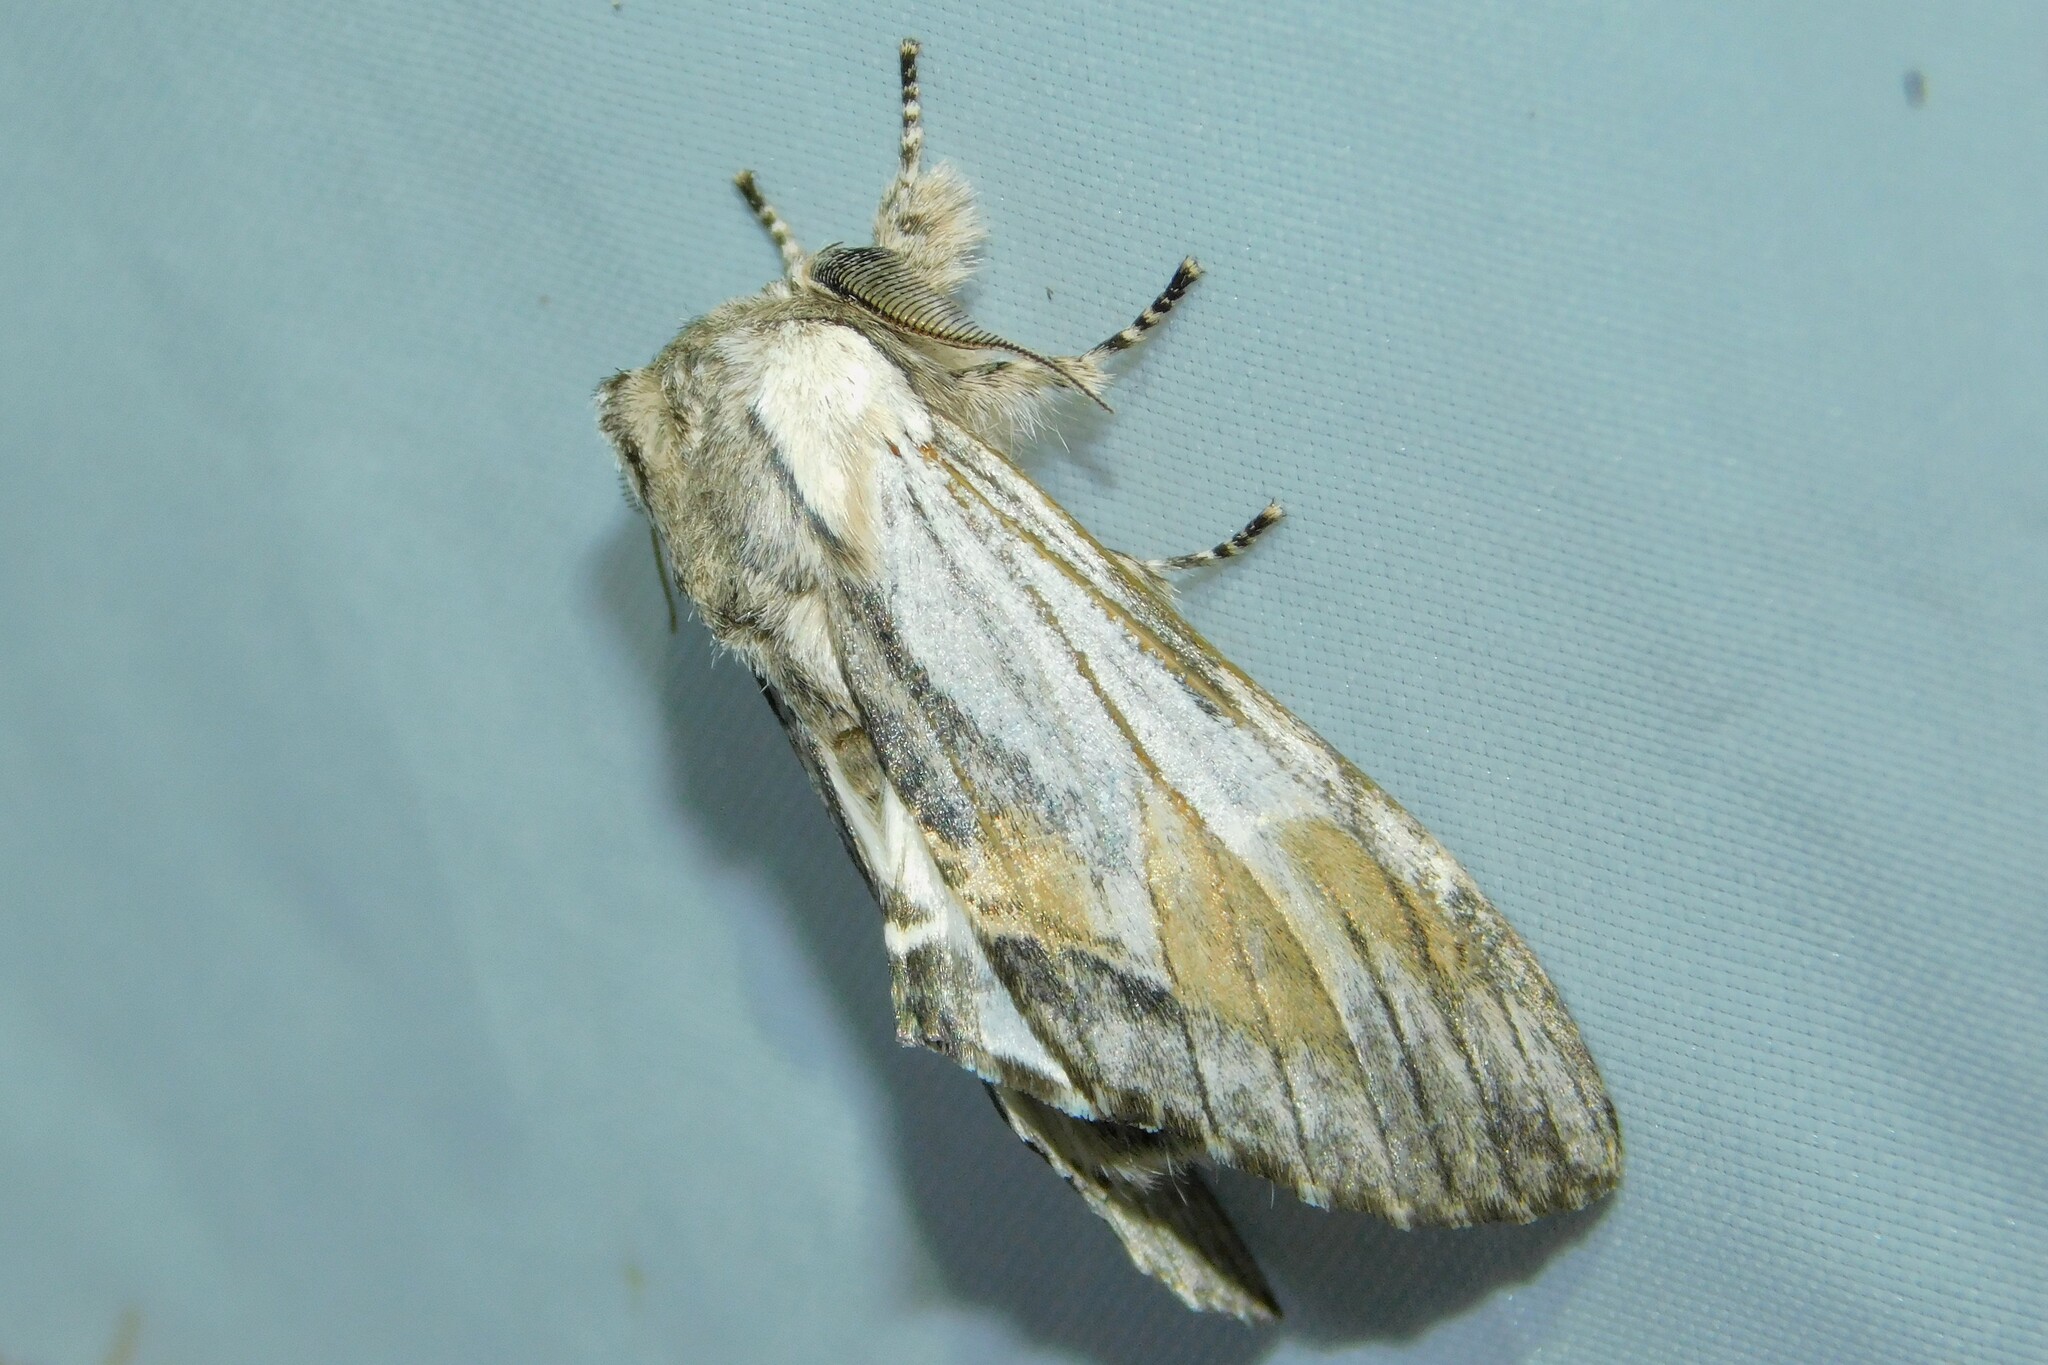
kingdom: Animalia
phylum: Arthropoda
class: Insecta
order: Lepidoptera
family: Notodontidae
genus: Harpyia
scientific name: Harpyia milhauseri
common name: Tawny prominent
